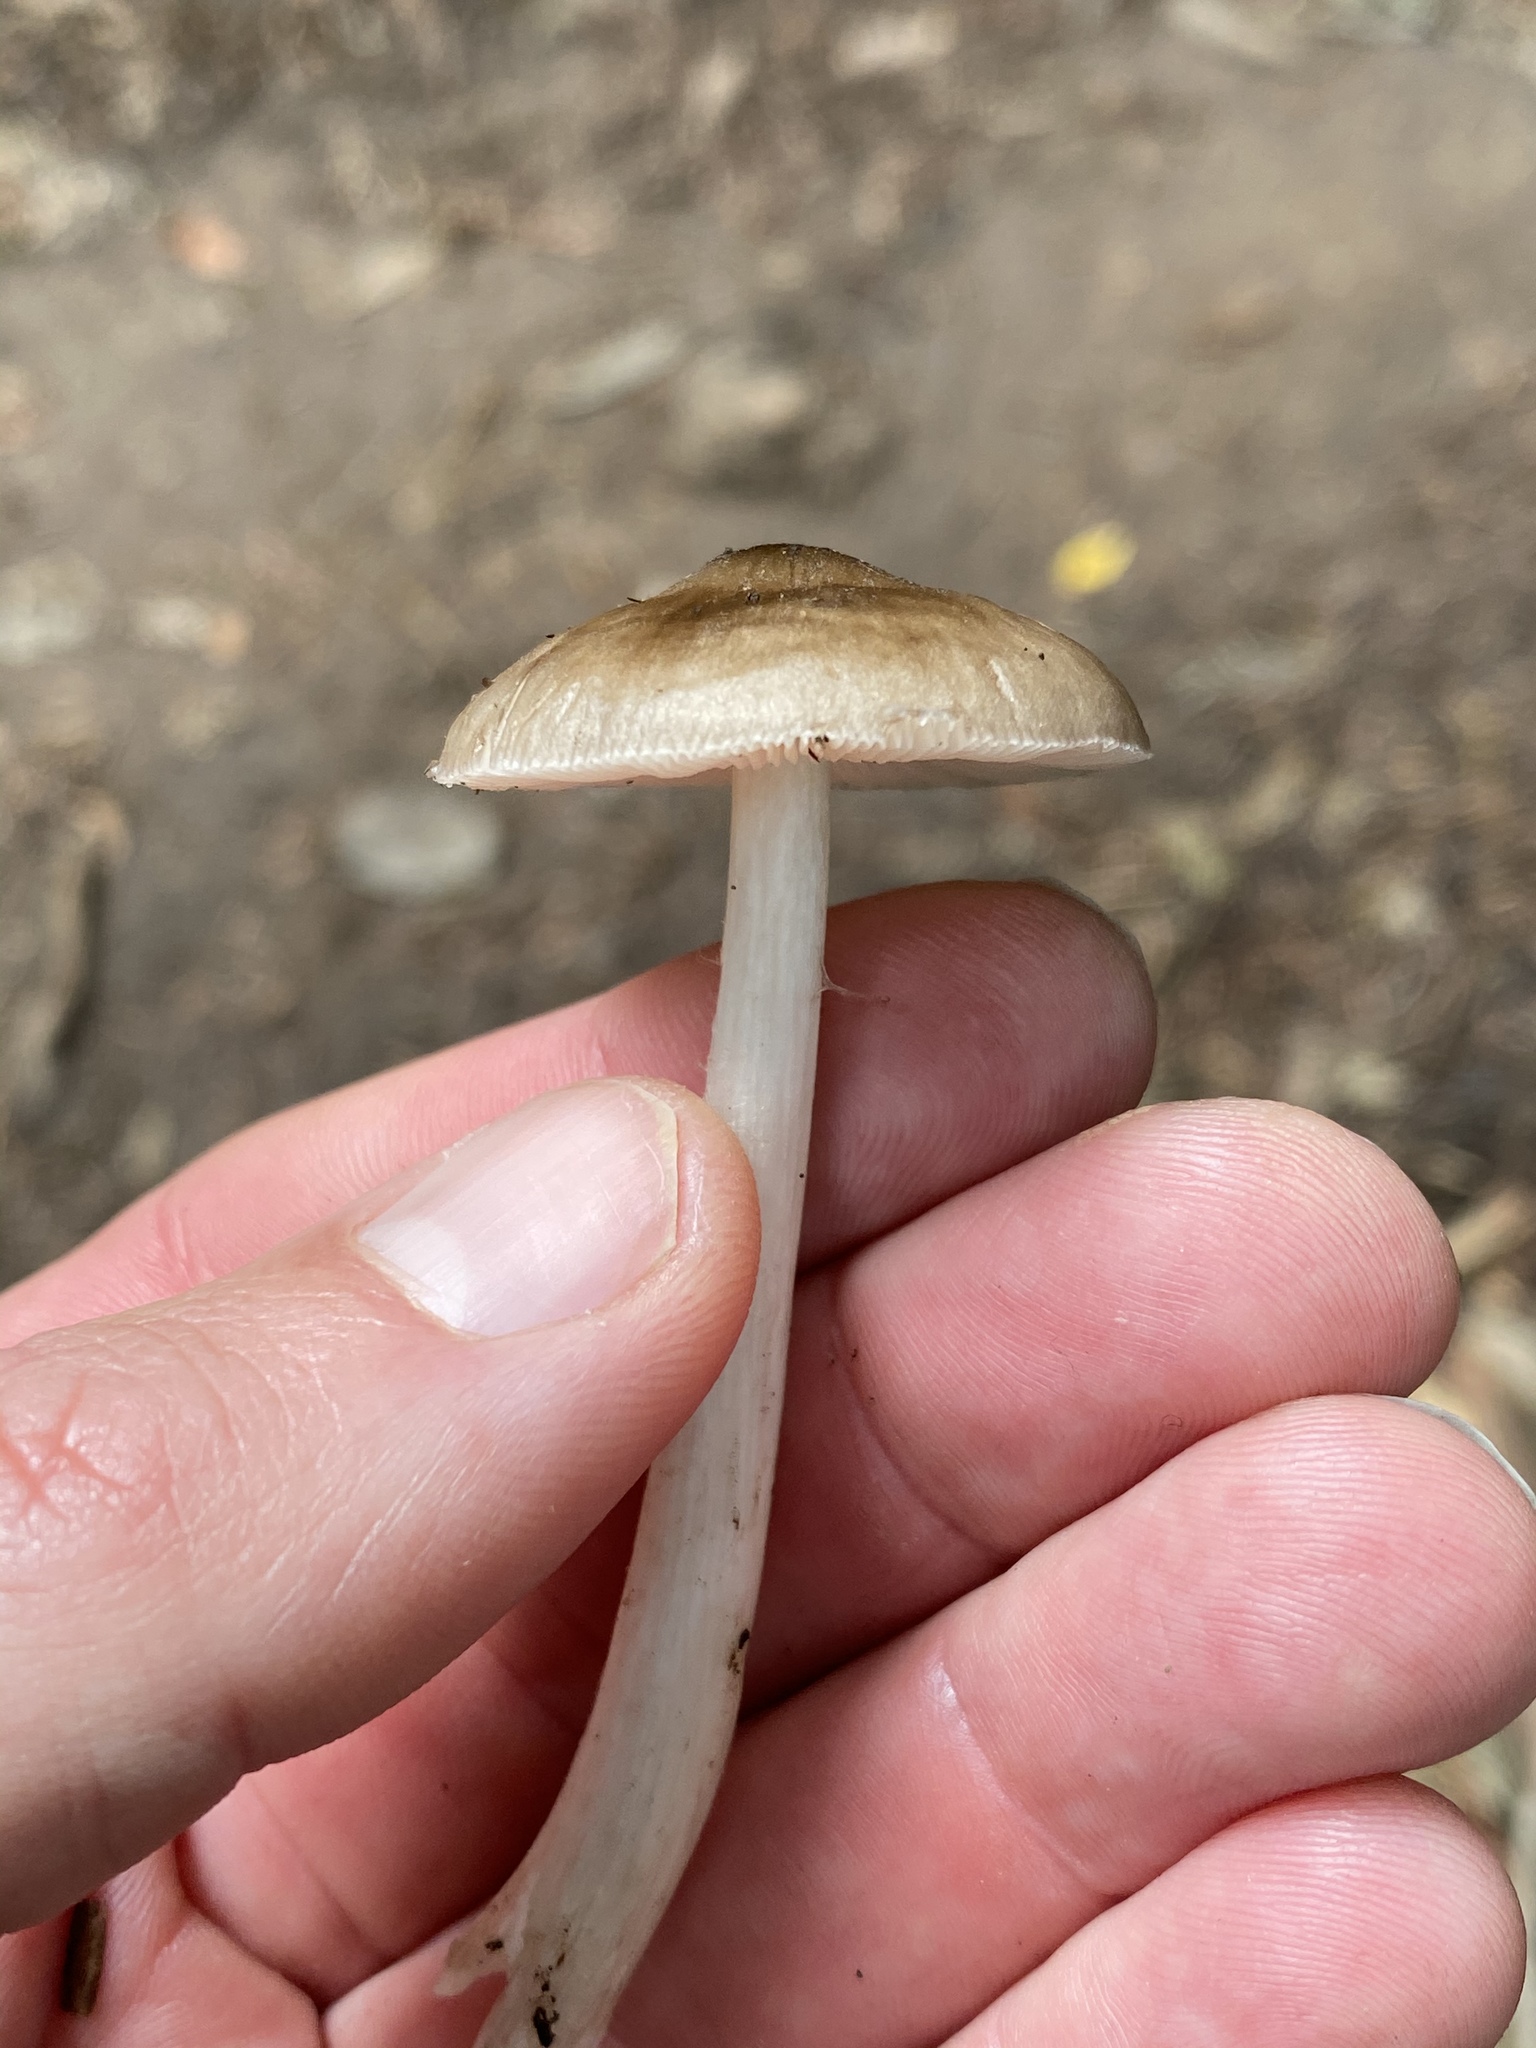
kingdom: Fungi
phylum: Basidiomycota
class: Agaricomycetes
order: Agaricales
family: Pluteaceae
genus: Pluteus
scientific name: Pluteus cervinus
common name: Deer shield
